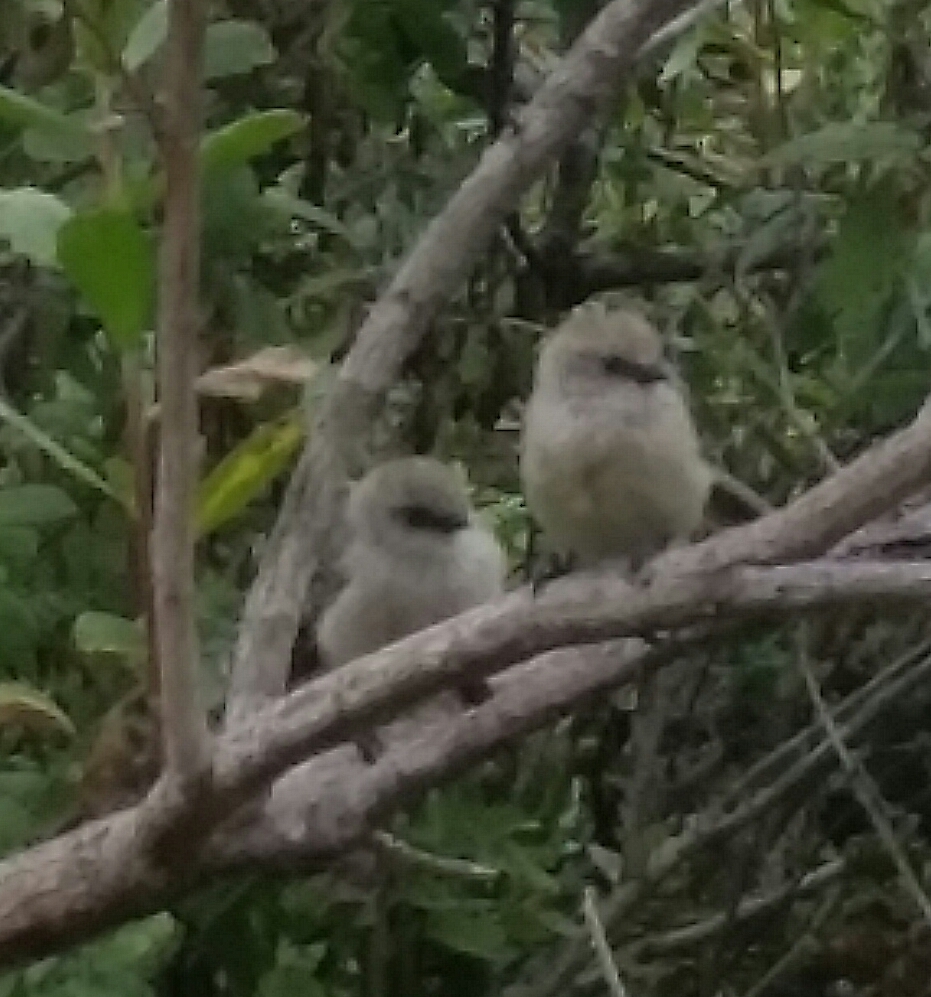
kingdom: Animalia
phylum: Chordata
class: Aves
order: Passeriformes
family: Aegithalidae
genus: Psaltriparus
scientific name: Psaltriparus minimus
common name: American bushtit
